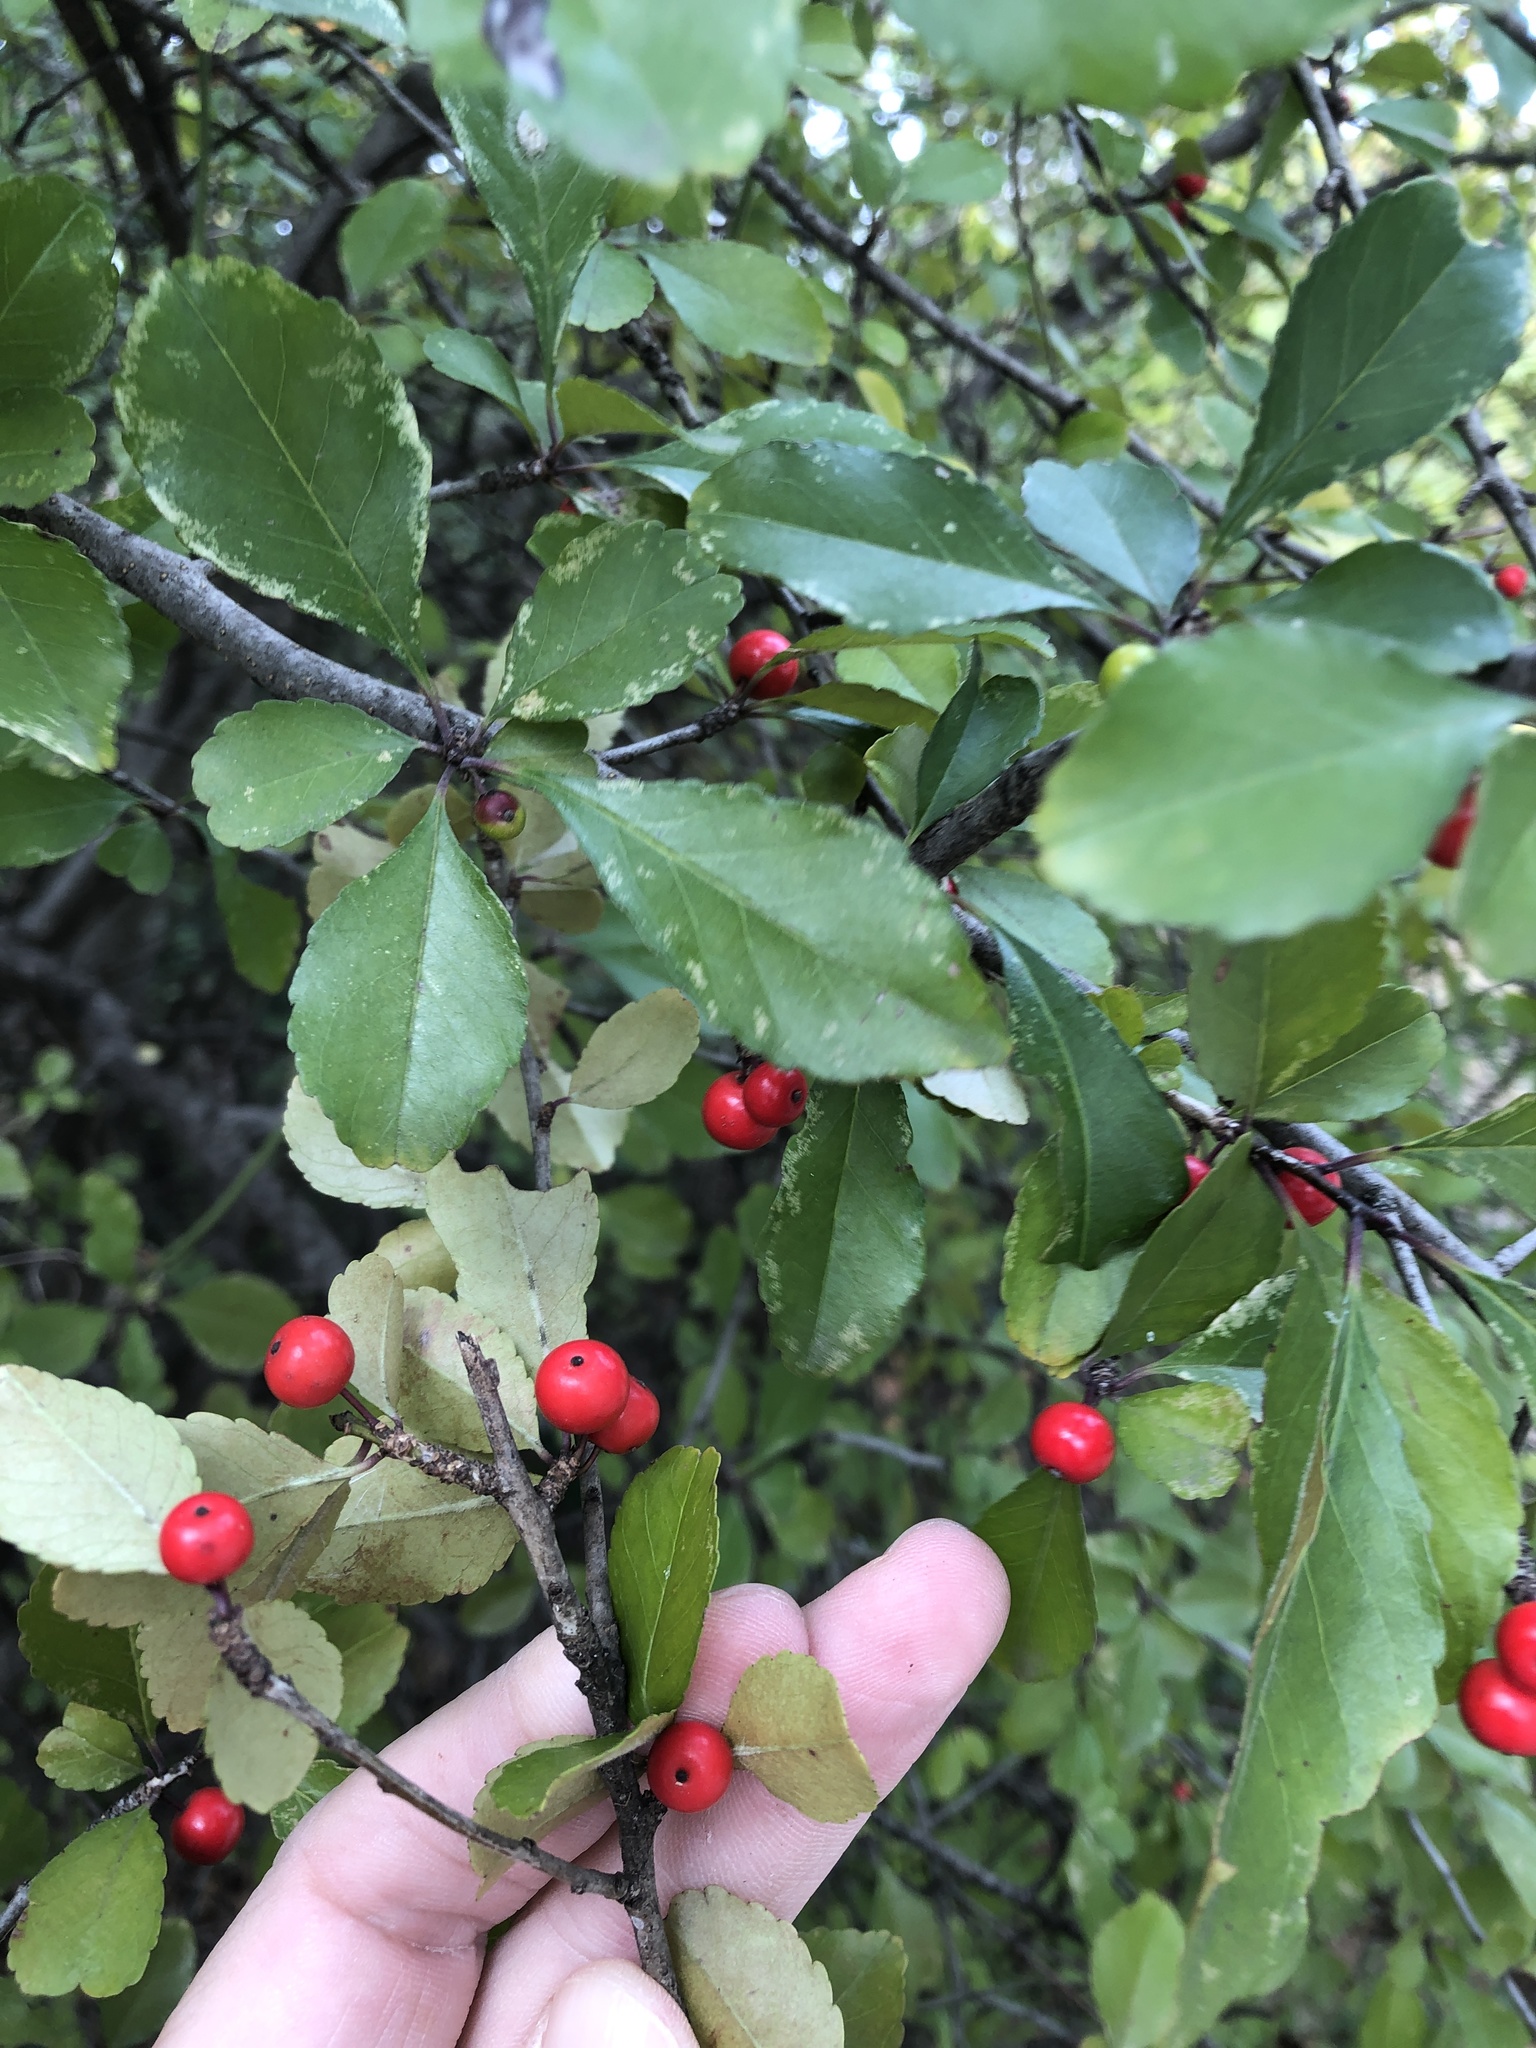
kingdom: Plantae
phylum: Tracheophyta
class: Magnoliopsida
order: Aquifoliales
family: Aquifoliaceae
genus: Ilex
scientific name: Ilex decidua
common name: Possum-haw
